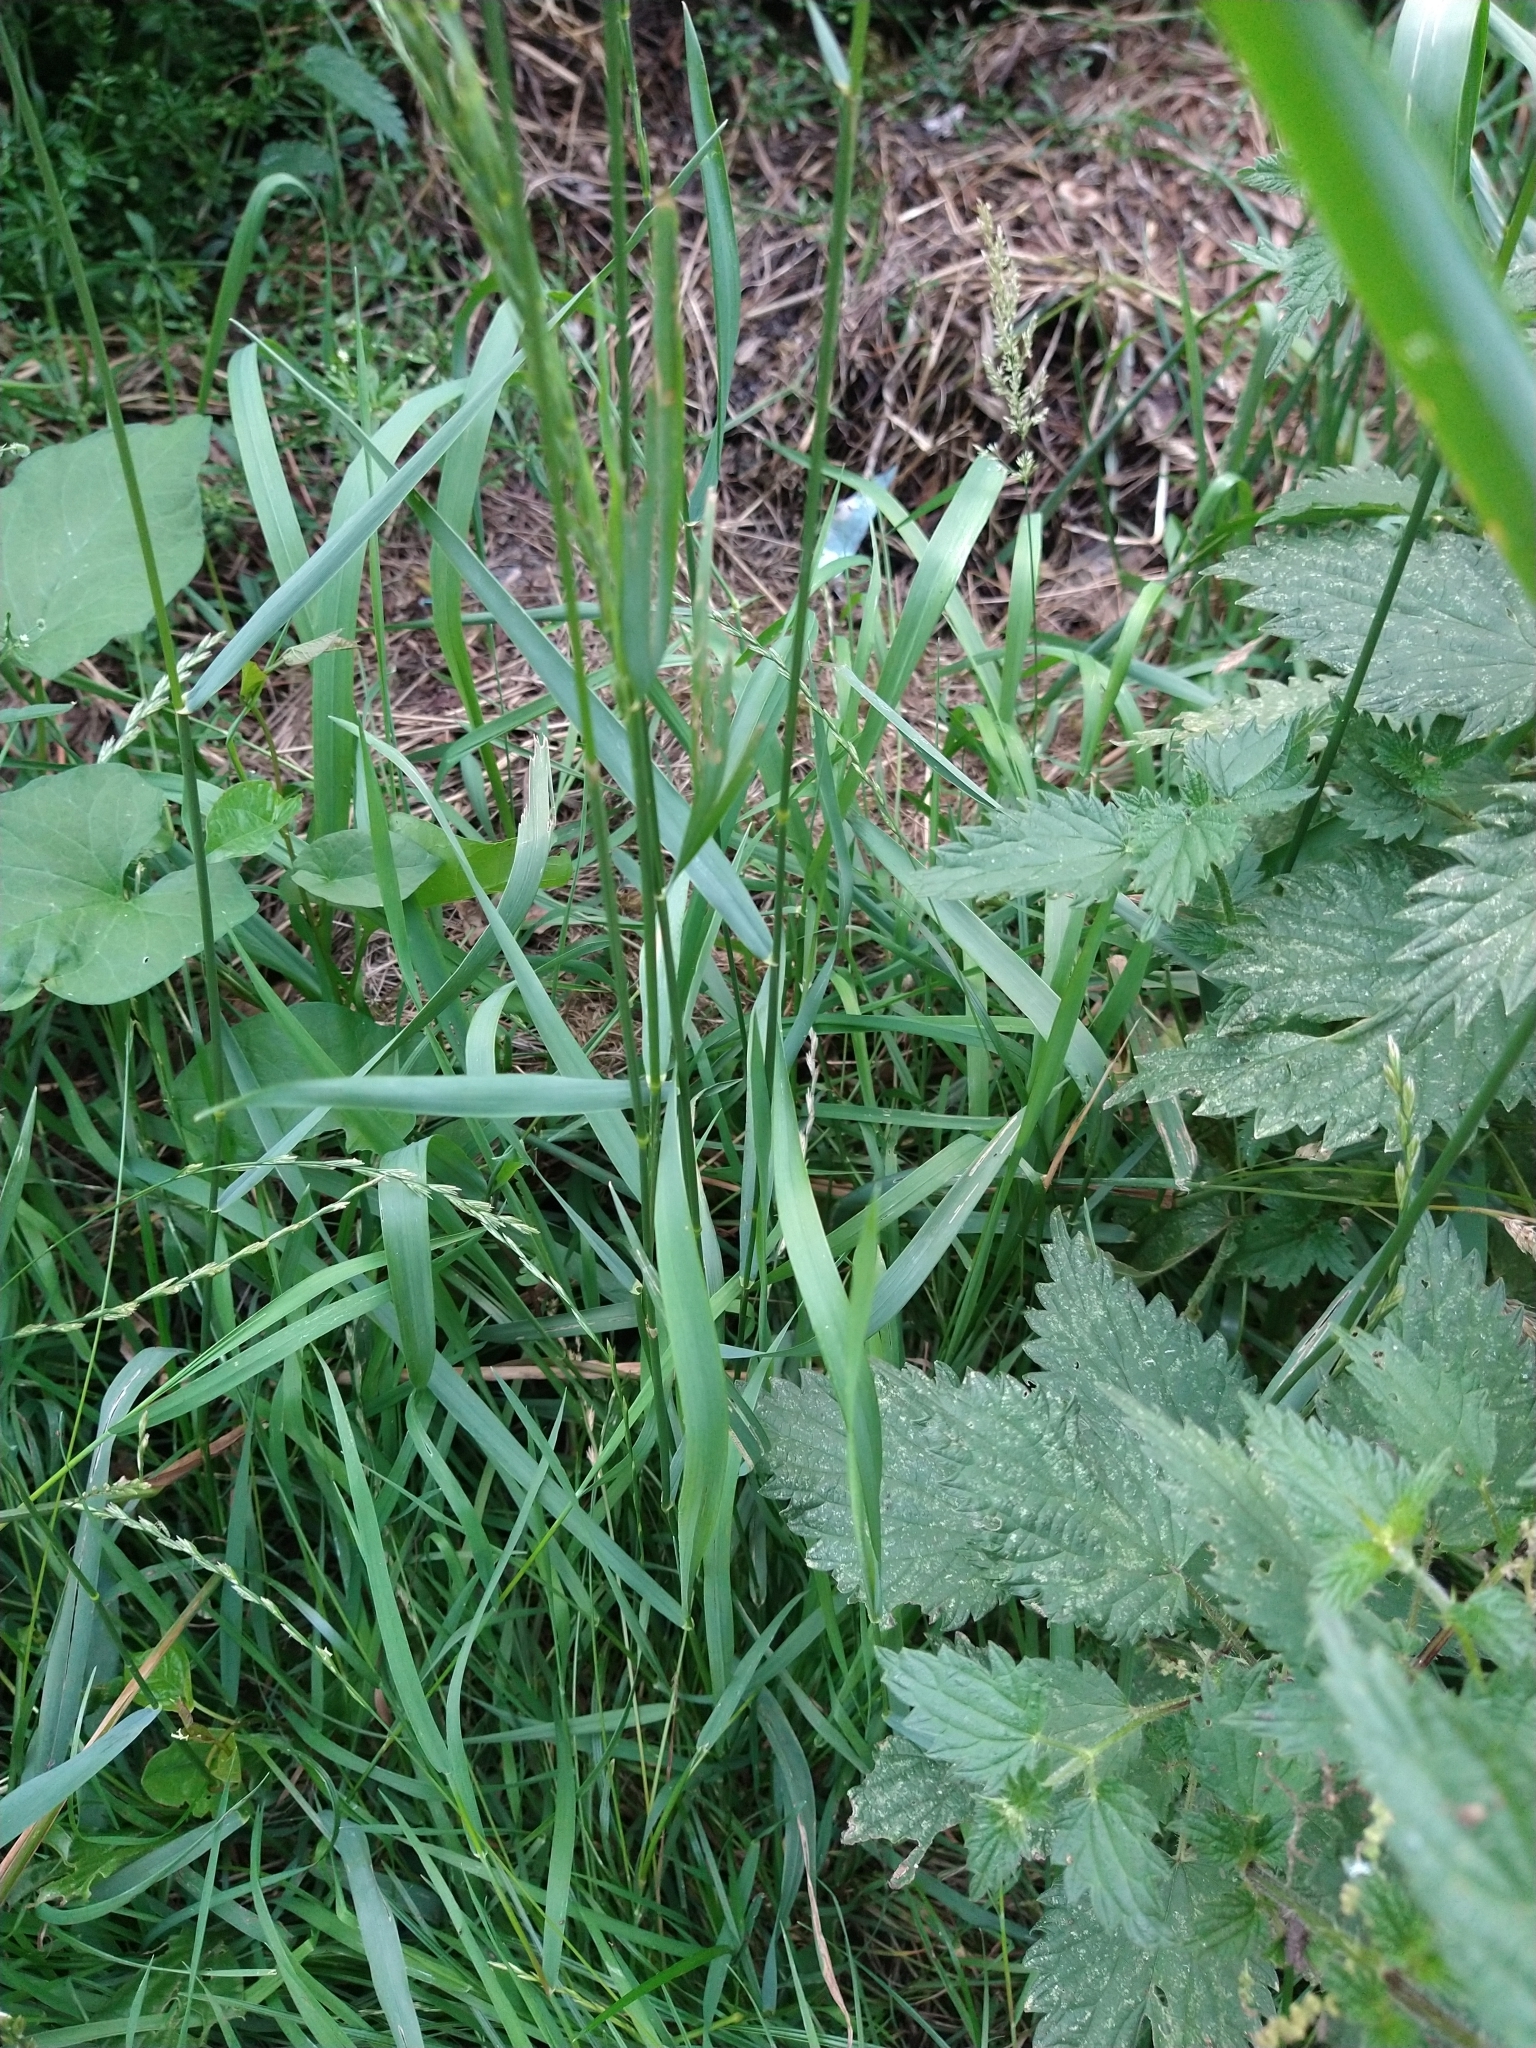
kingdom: Plantae
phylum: Tracheophyta
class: Liliopsida
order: Poales
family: Poaceae
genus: Elymus
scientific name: Elymus repens
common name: Quackgrass
